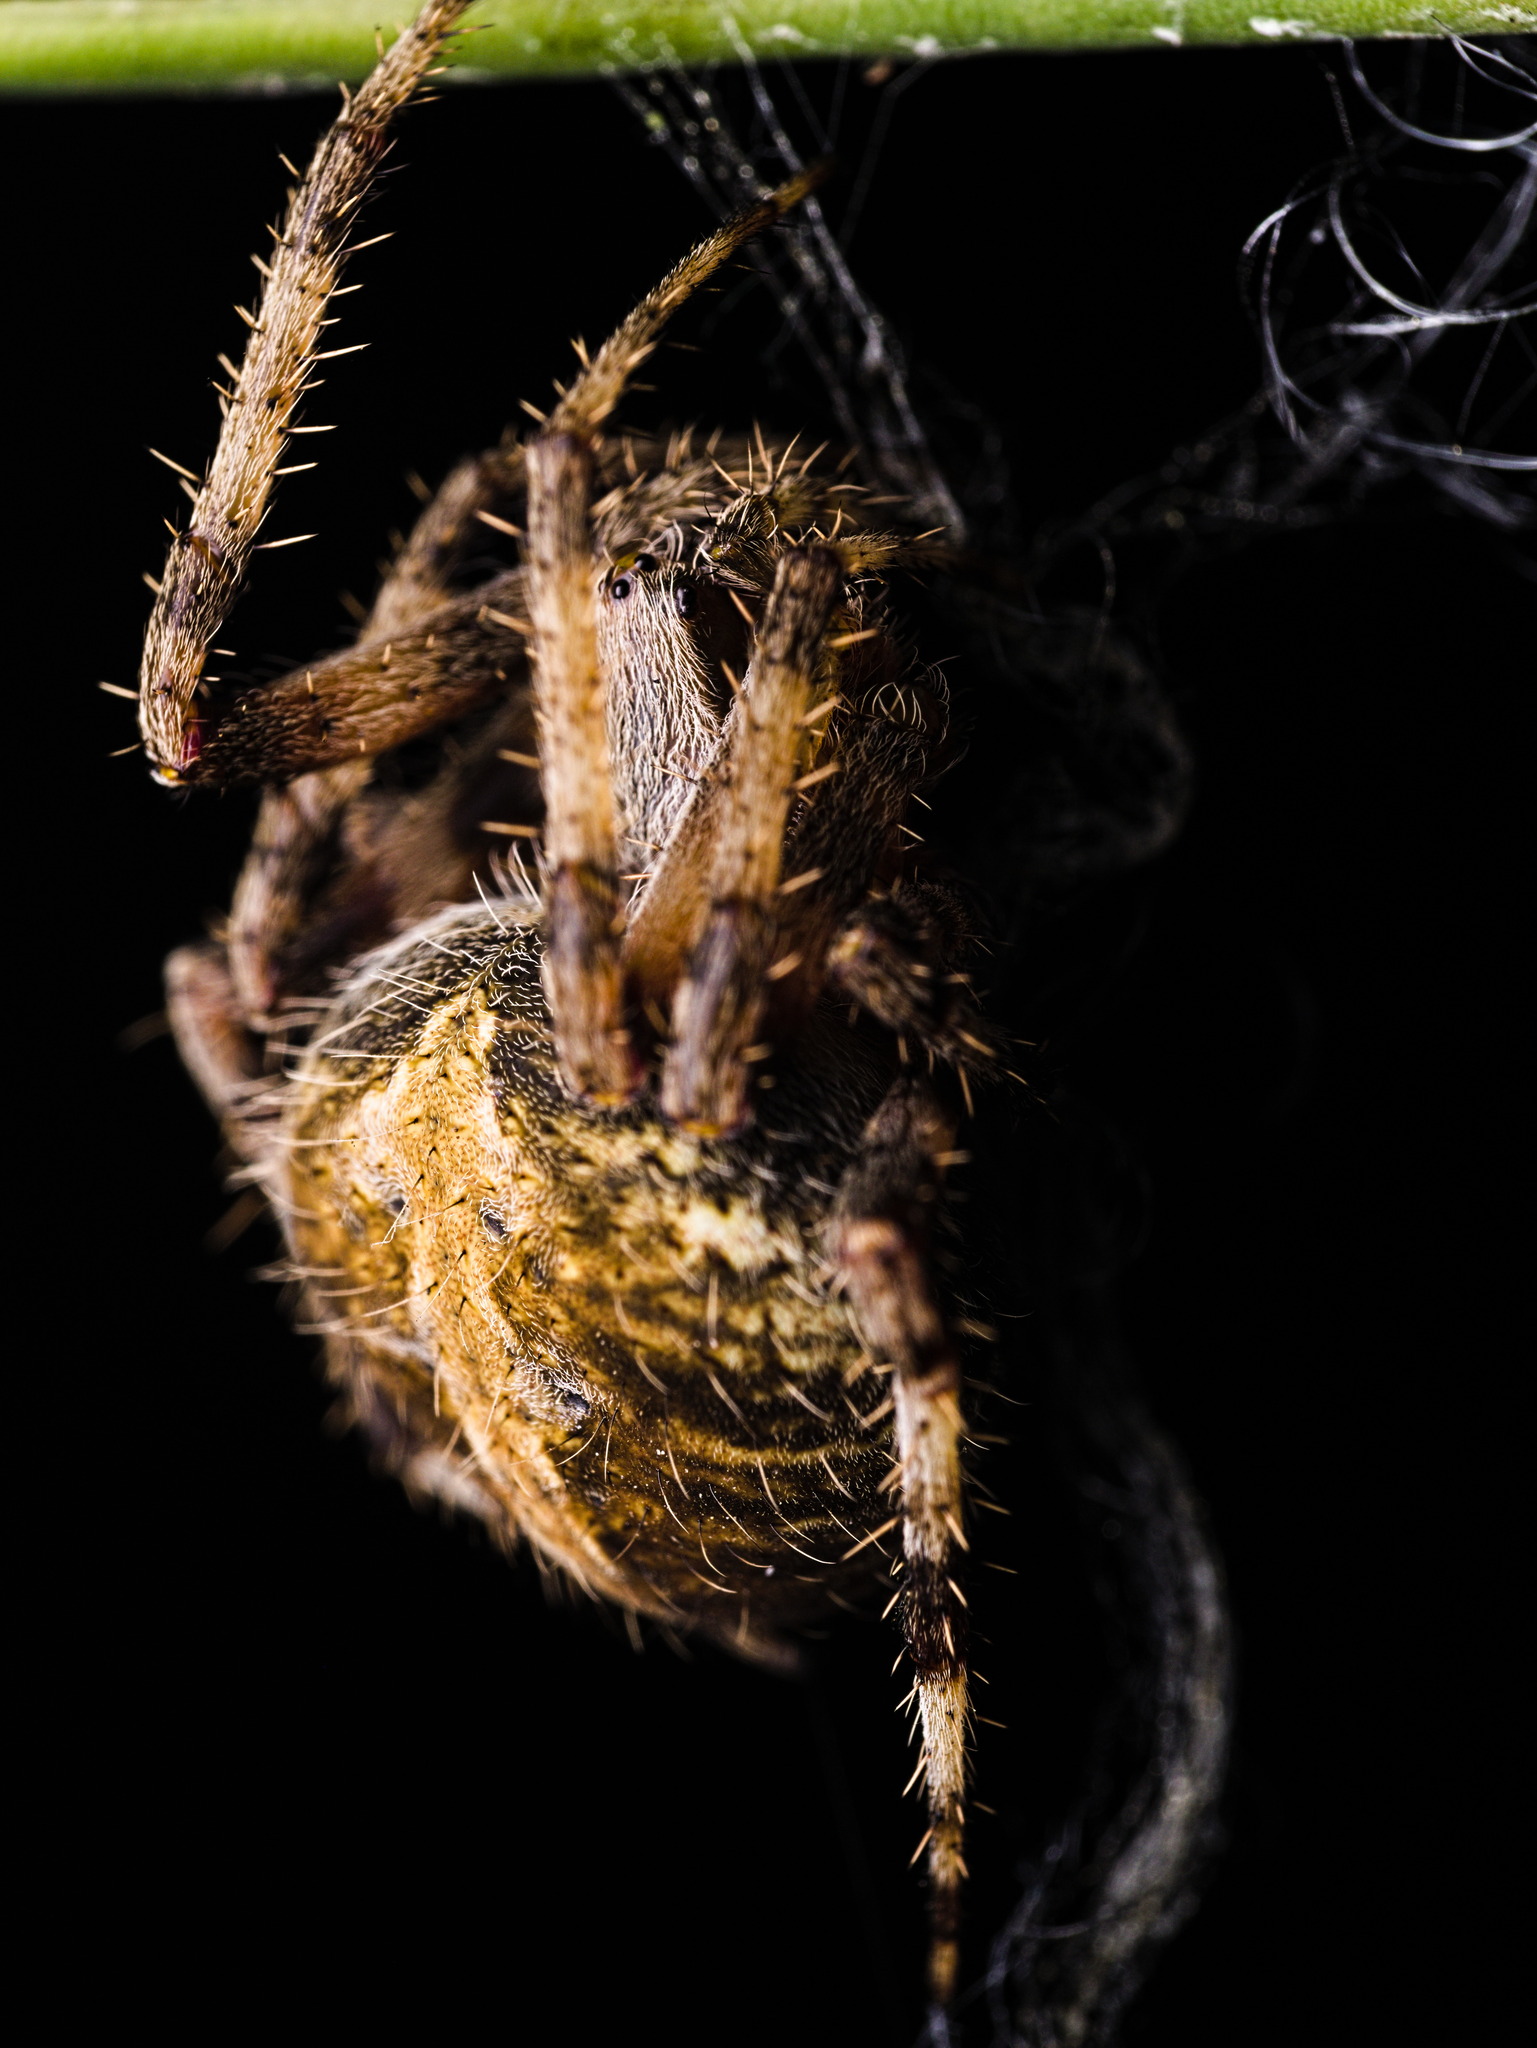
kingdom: Animalia
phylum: Arthropoda
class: Arachnida
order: Araneae
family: Araneidae
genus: Neoscona
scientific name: Neoscona crucifera
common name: Spotted orbweaver
